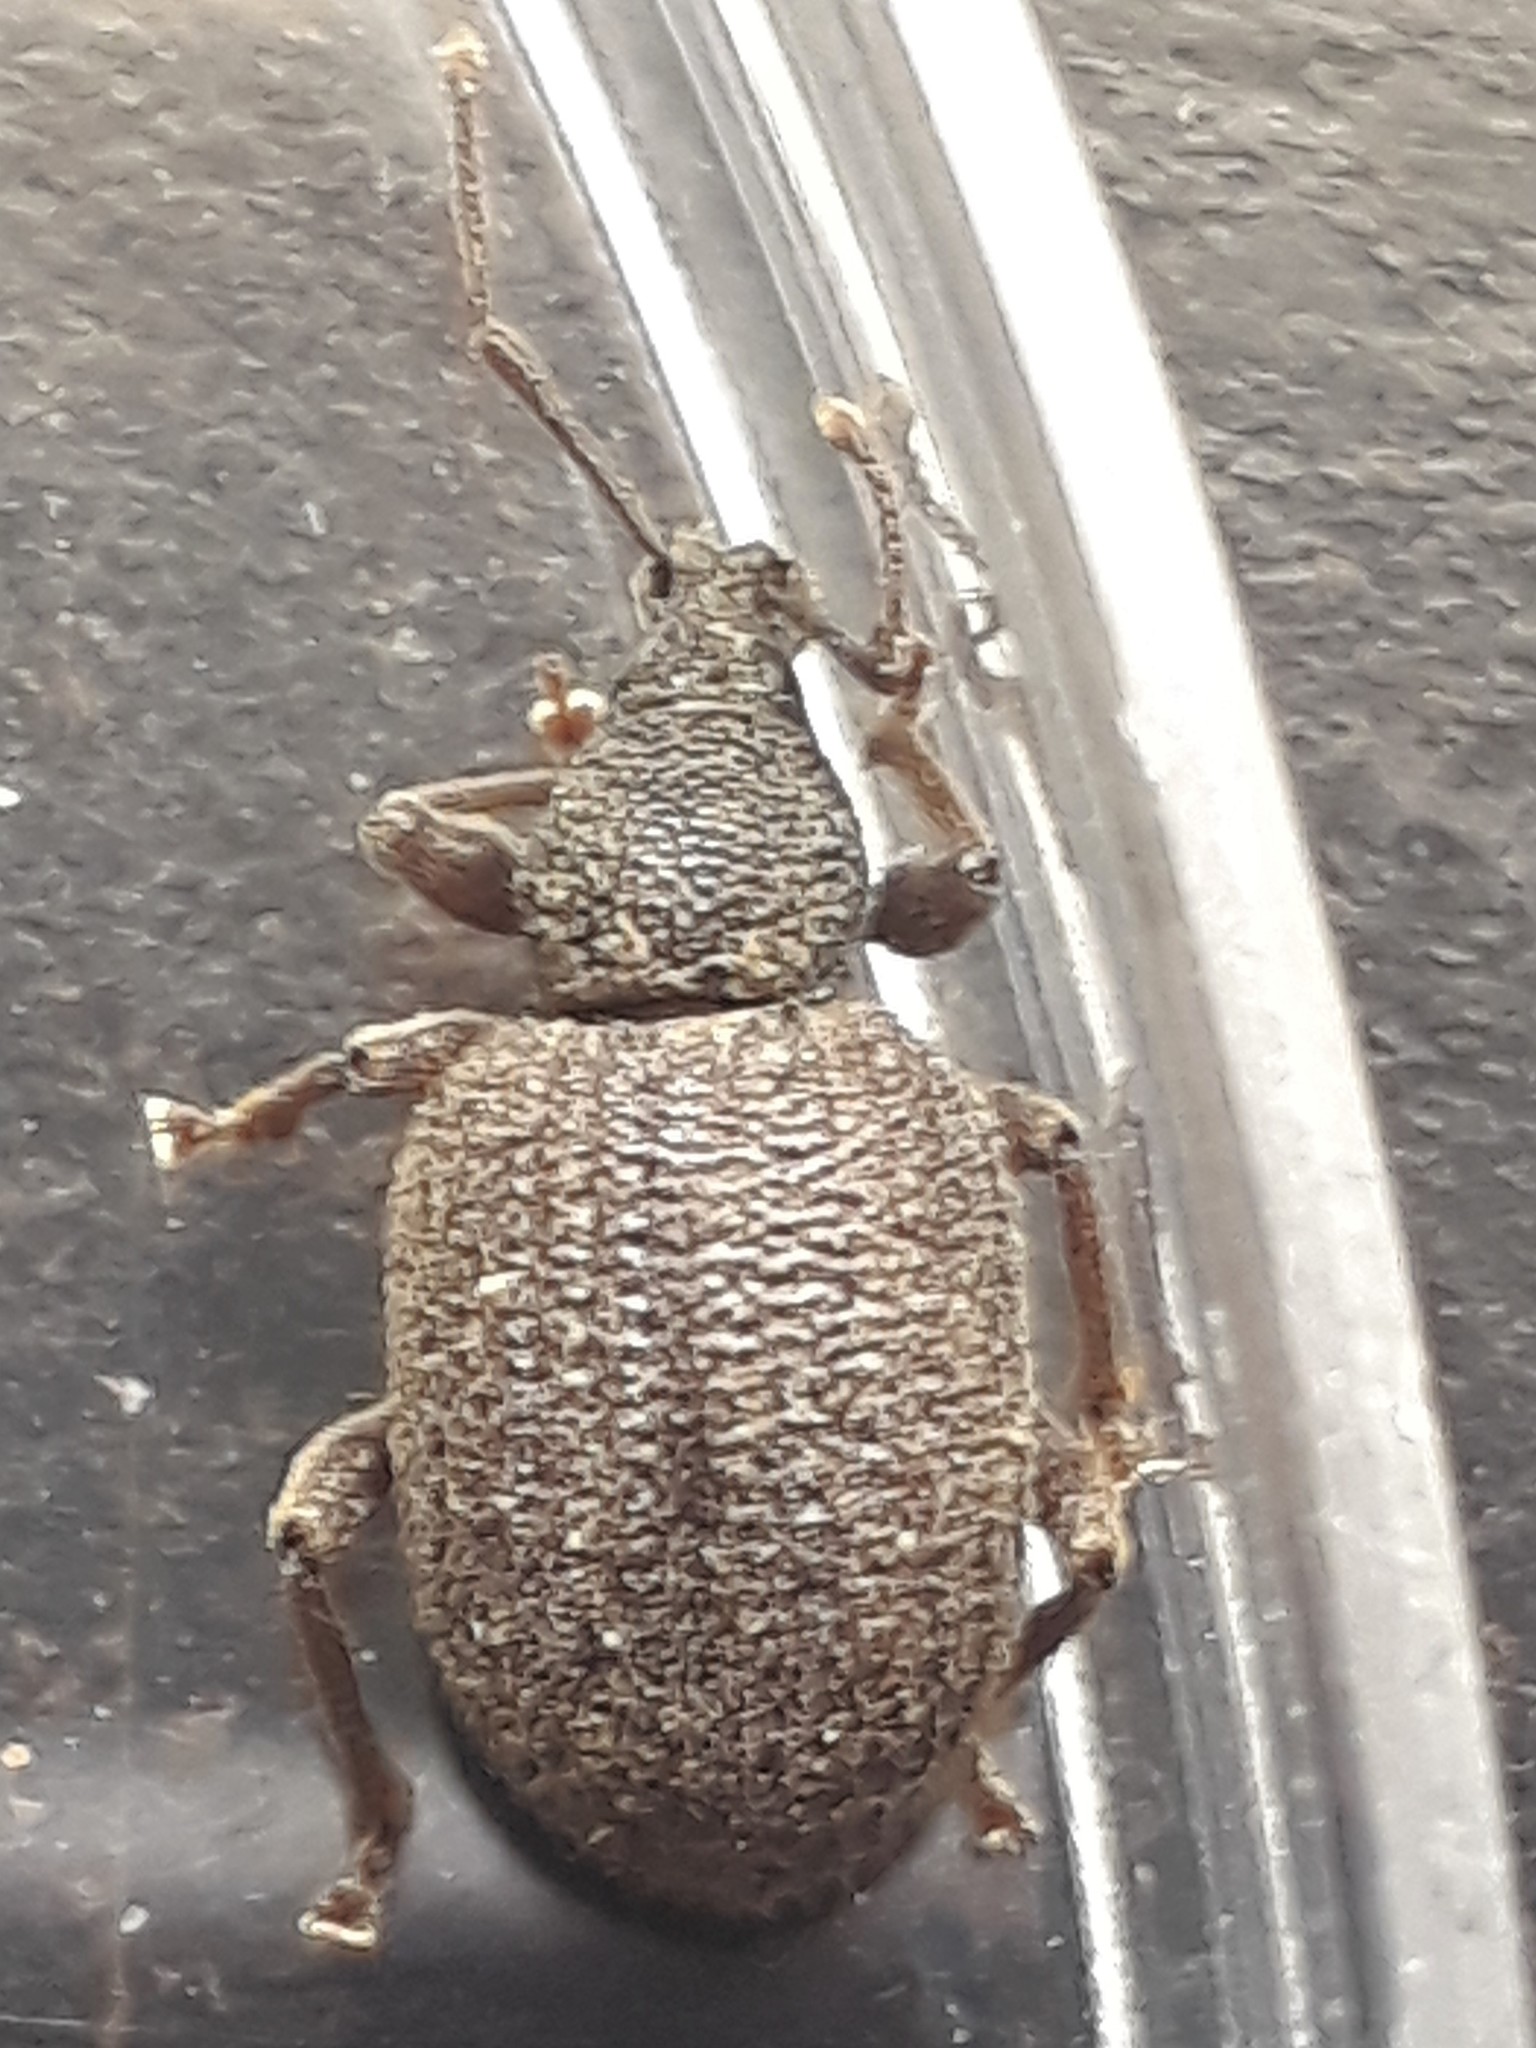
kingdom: Animalia
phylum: Arthropoda
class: Insecta
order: Coleoptera
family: Curculionidae
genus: Otiorhynchus
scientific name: Otiorhynchus rugosostriatus
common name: Weevil
